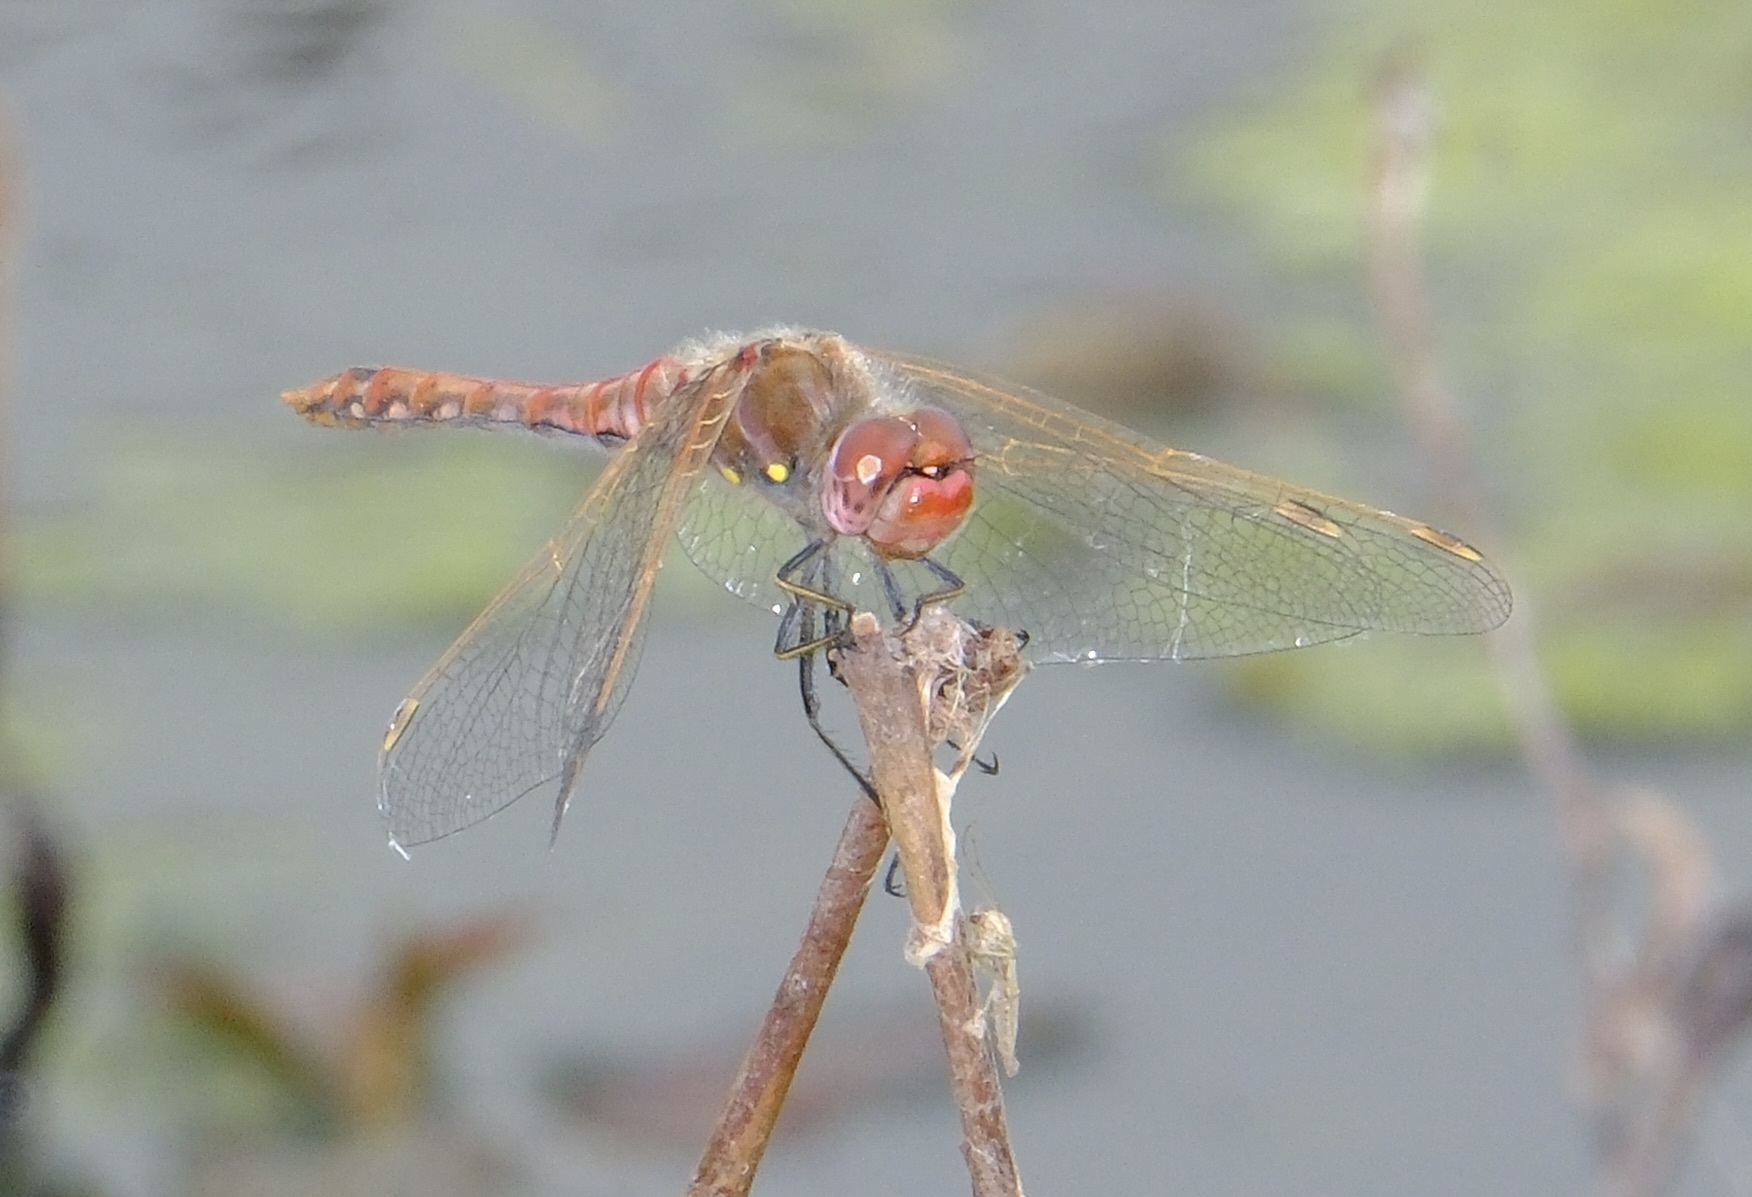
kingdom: Animalia
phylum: Arthropoda
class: Insecta
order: Odonata
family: Libellulidae
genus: Sympetrum
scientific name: Sympetrum corruptum
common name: Variegated meadowhawk
